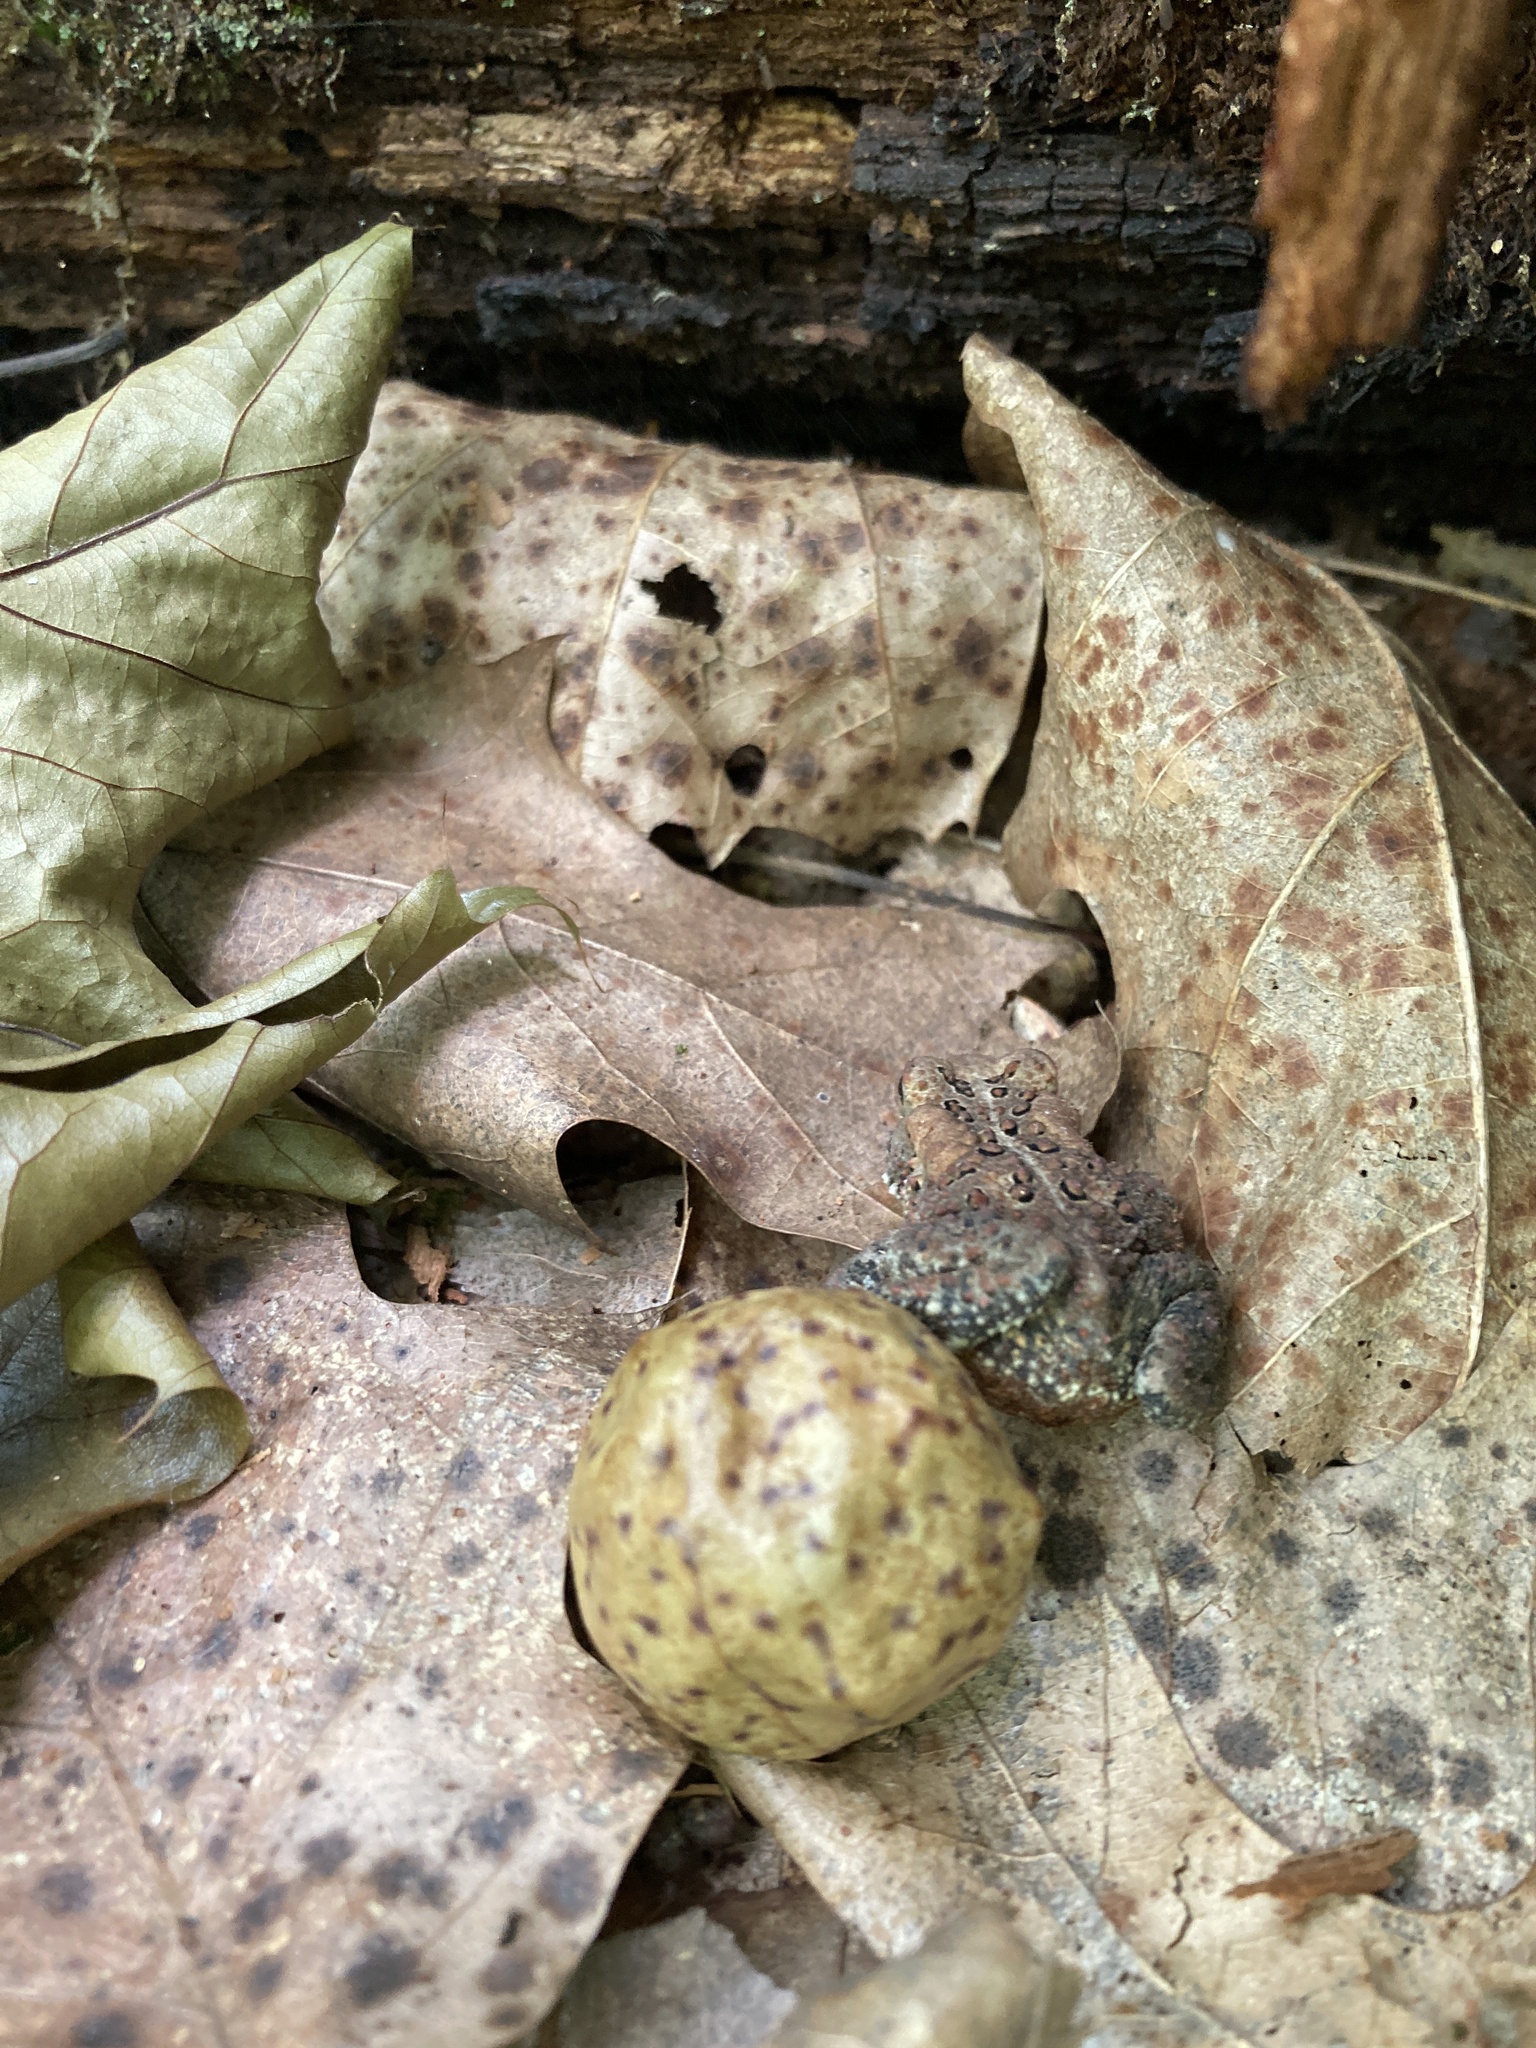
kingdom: Animalia
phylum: Chordata
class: Amphibia
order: Anura
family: Bufonidae
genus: Anaxyrus
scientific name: Anaxyrus americanus
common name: American toad
